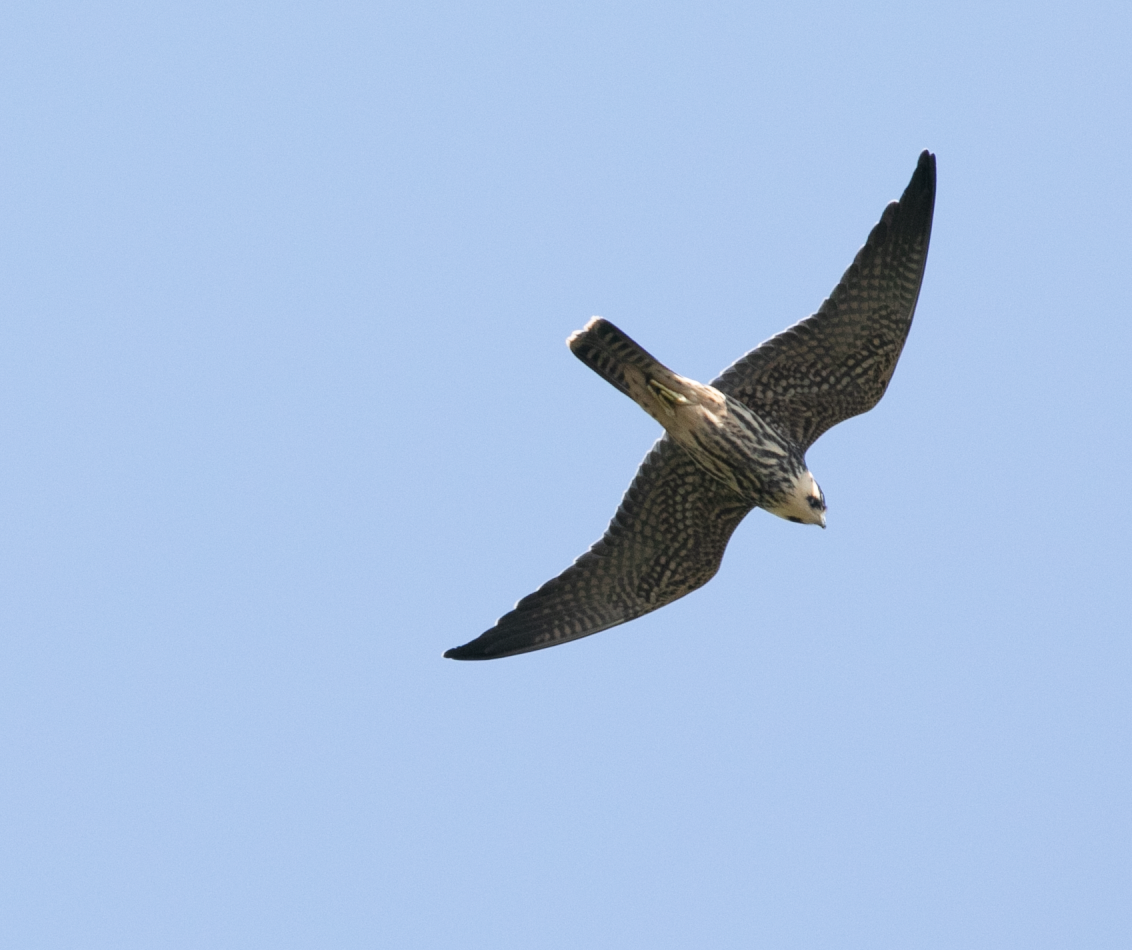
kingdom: Animalia
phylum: Chordata
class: Aves
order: Falconiformes
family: Falconidae
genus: Falco
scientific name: Falco subbuteo
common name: Eurasian hobby
